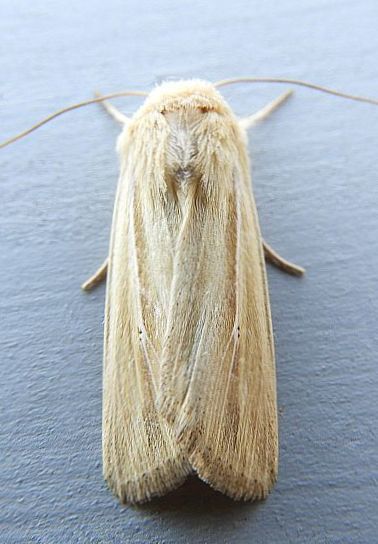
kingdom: Animalia
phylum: Arthropoda
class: Insecta
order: Lepidoptera
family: Noctuidae
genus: Leucania
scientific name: Leucania stolata
